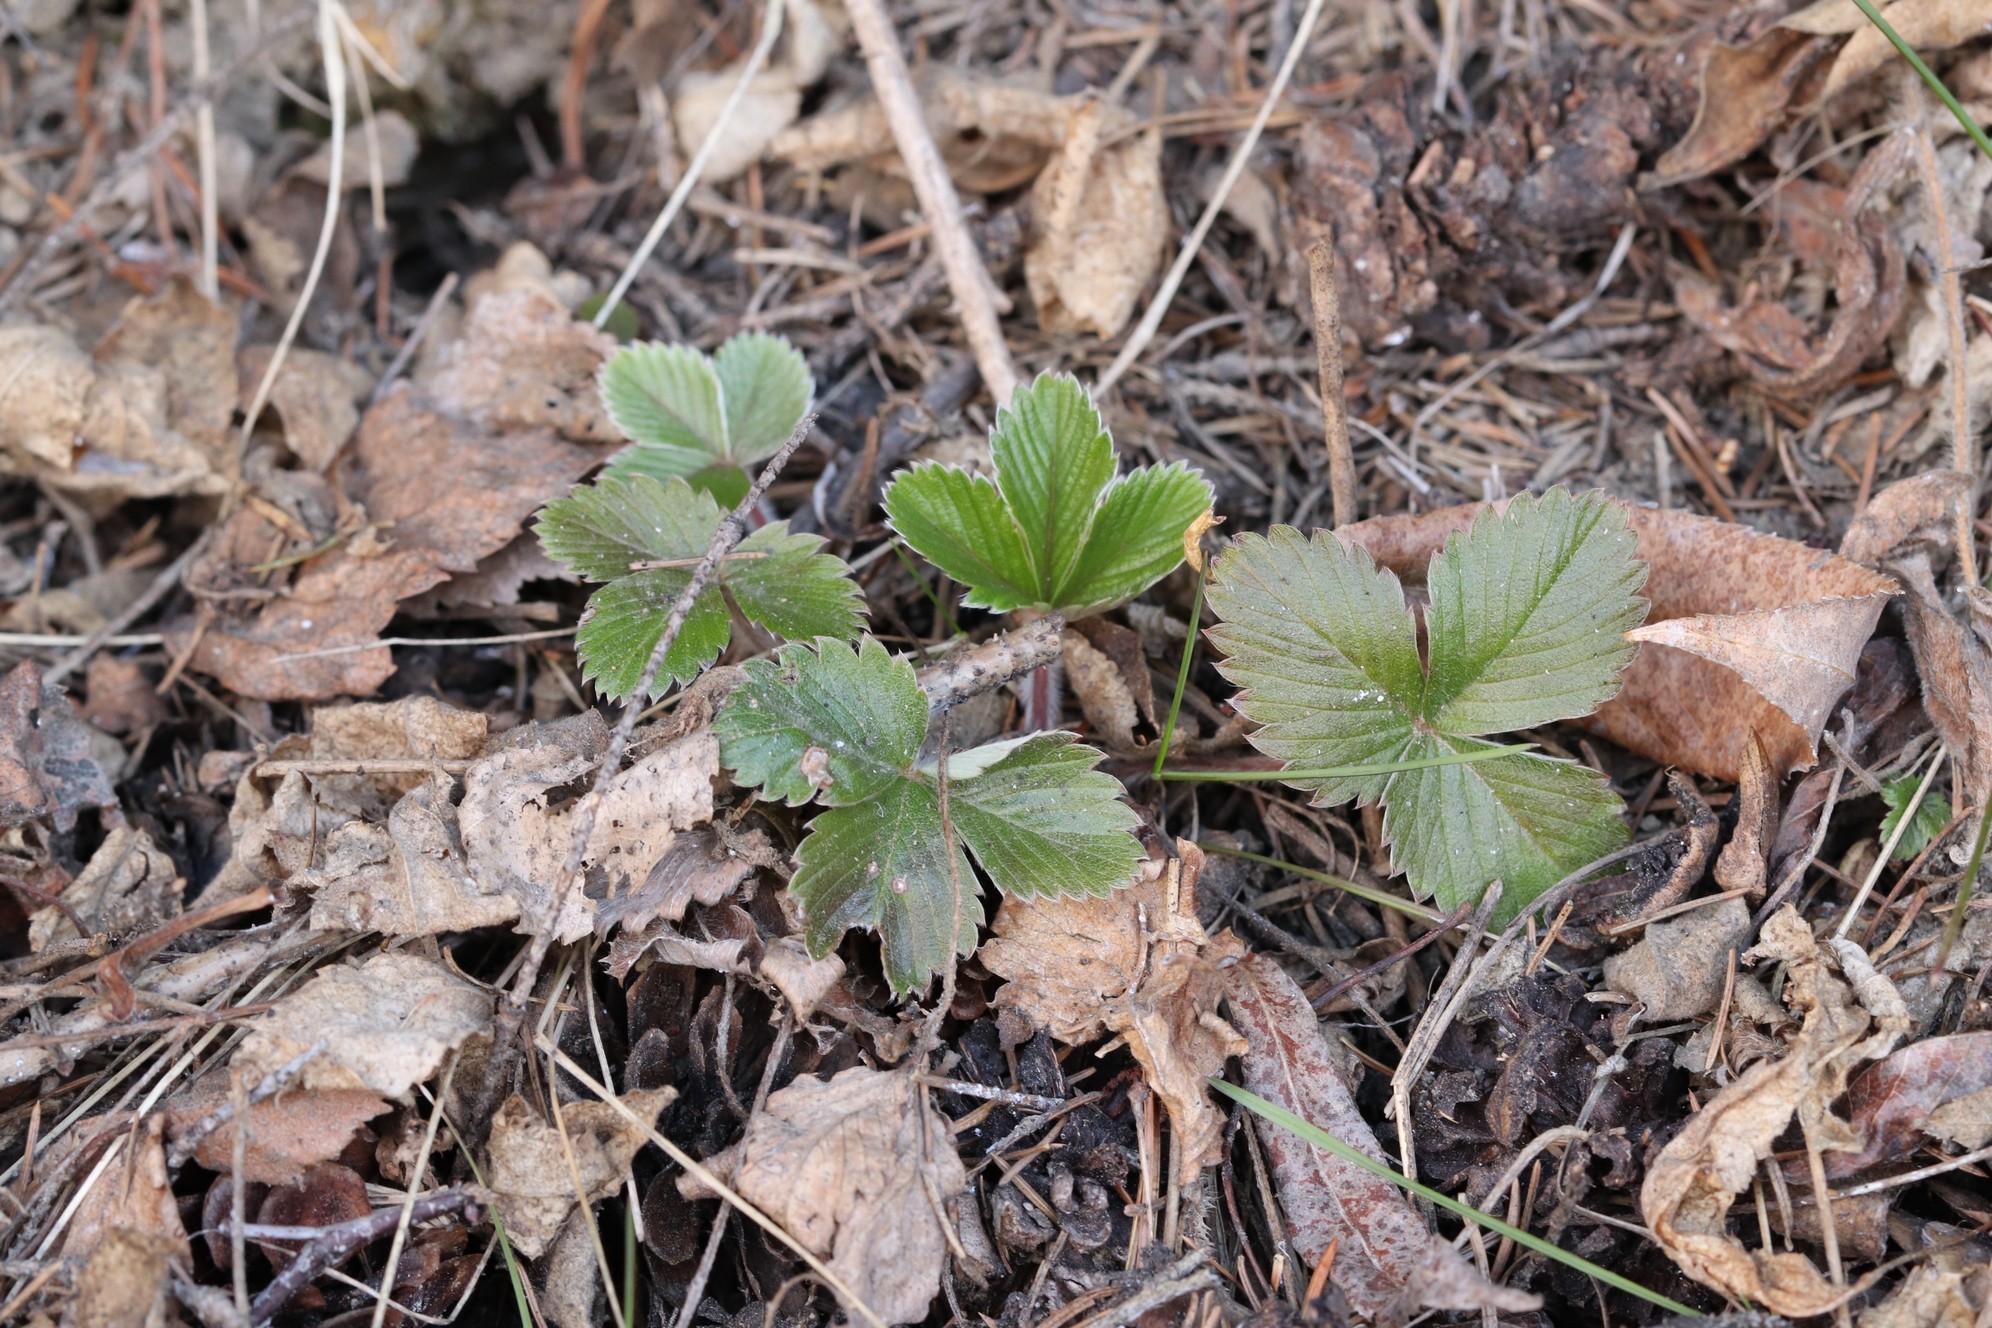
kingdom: Plantae
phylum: Tracheophyta
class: Magnoliopsida
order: Rosales
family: Rosaceae
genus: Fragaria
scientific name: Fragaria vesca
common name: Wild strawberry
